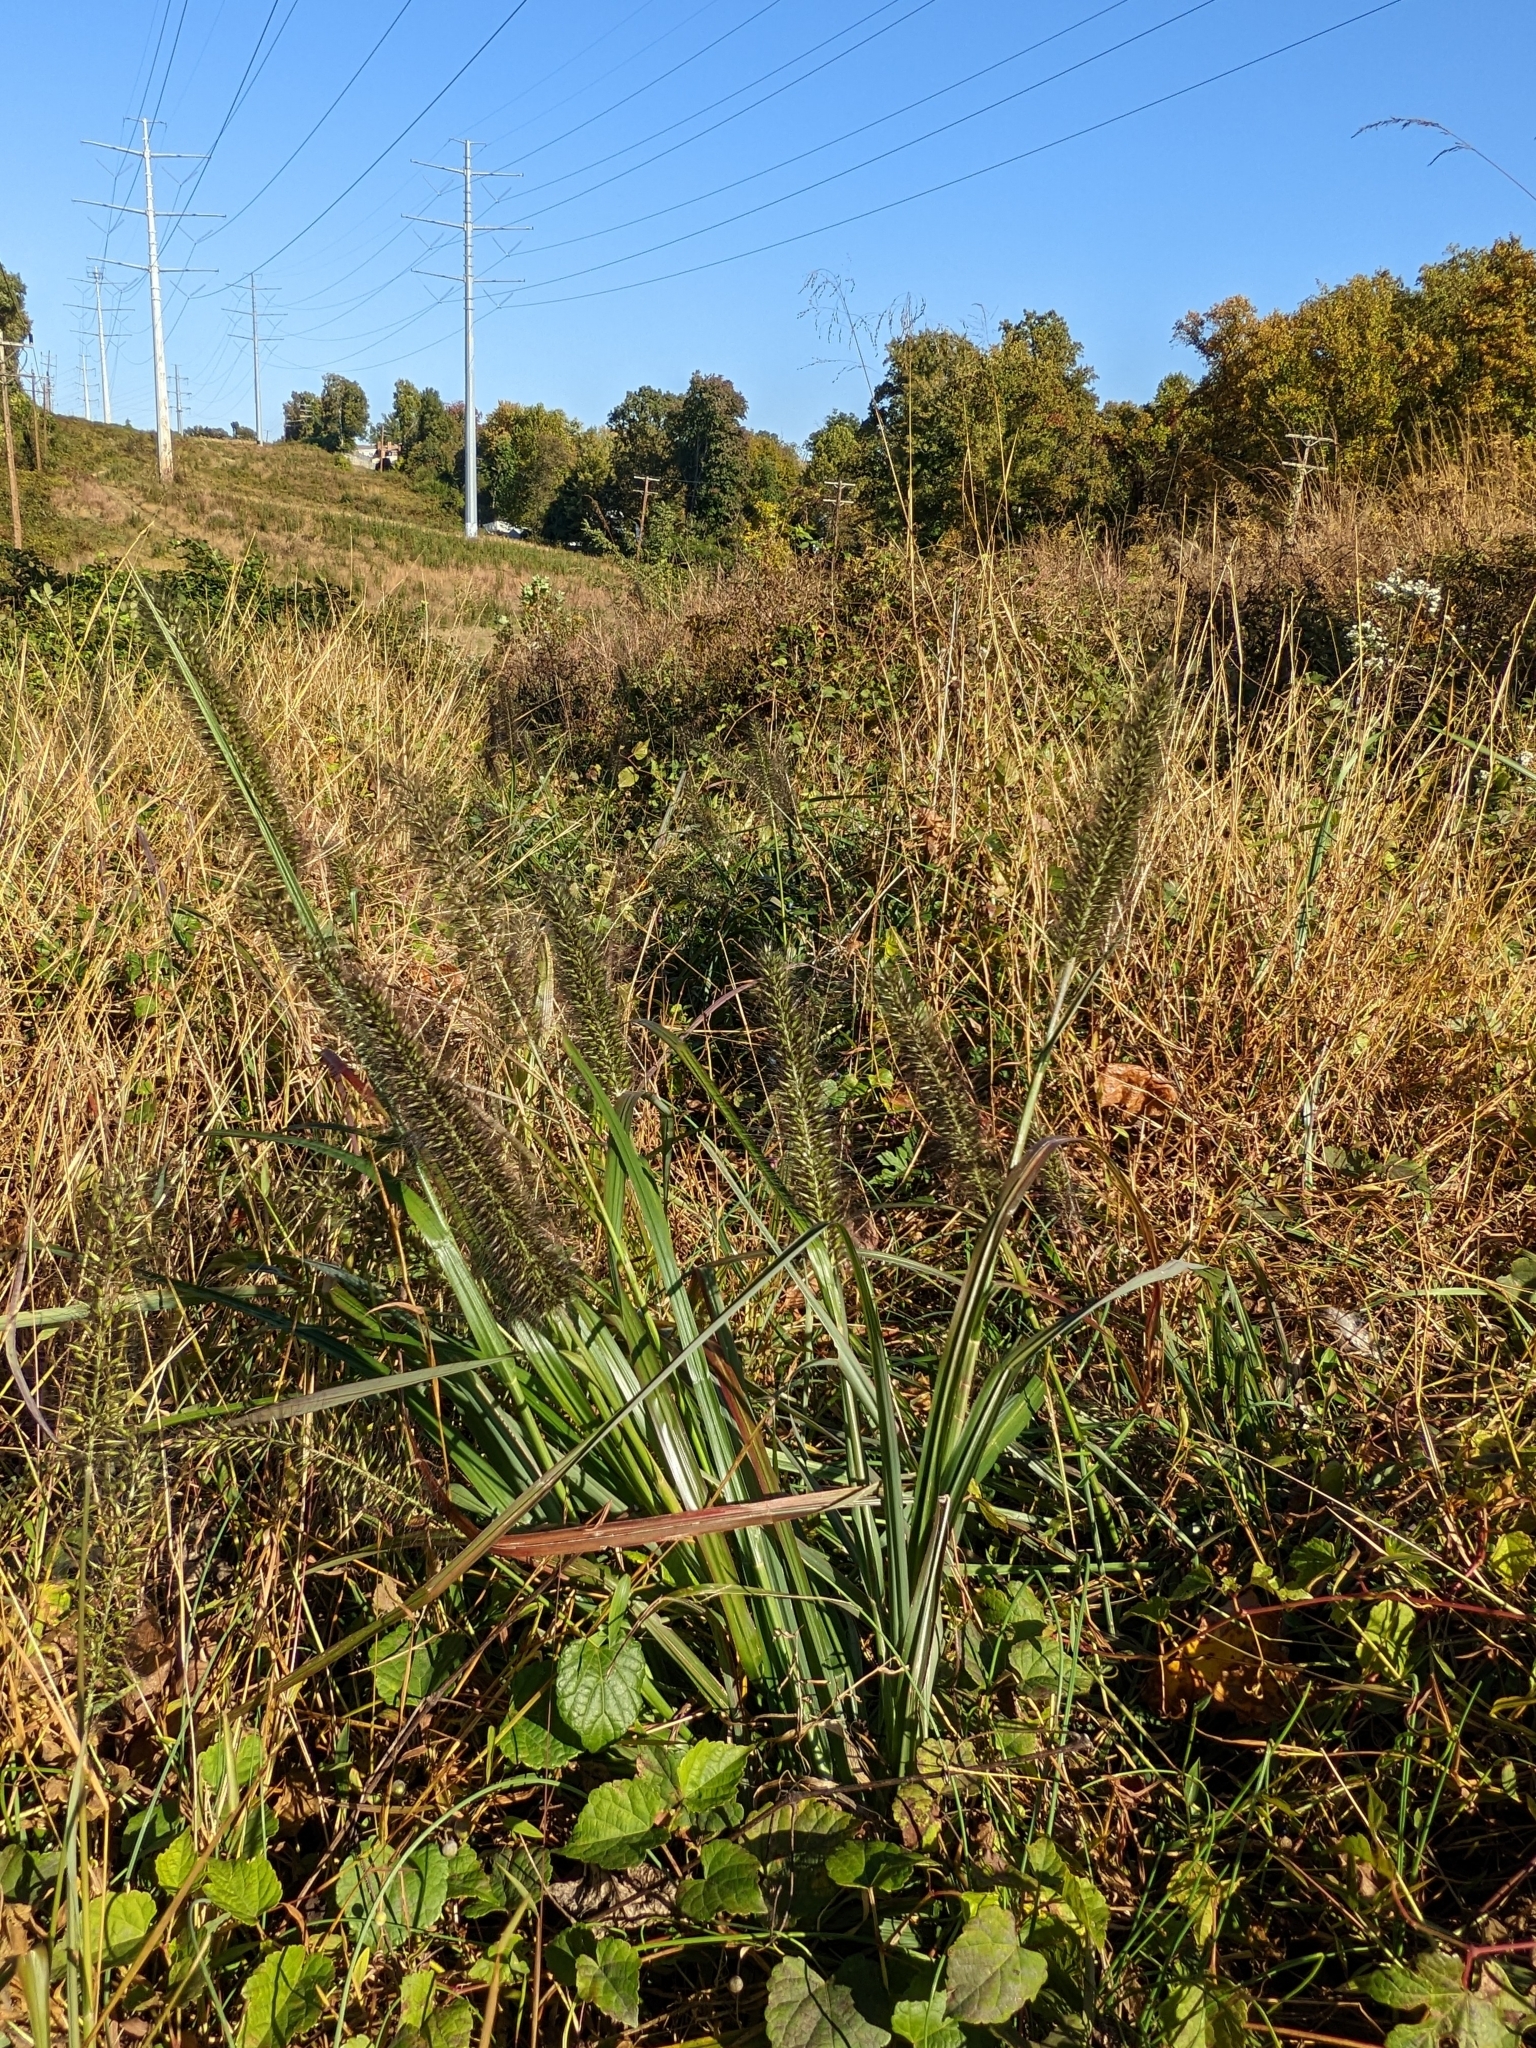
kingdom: Plantae
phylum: Tracheophyta
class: Liliopsida
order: Poales
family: Poaceae
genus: Cenchrus
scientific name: Cenchrus alopecuroides
